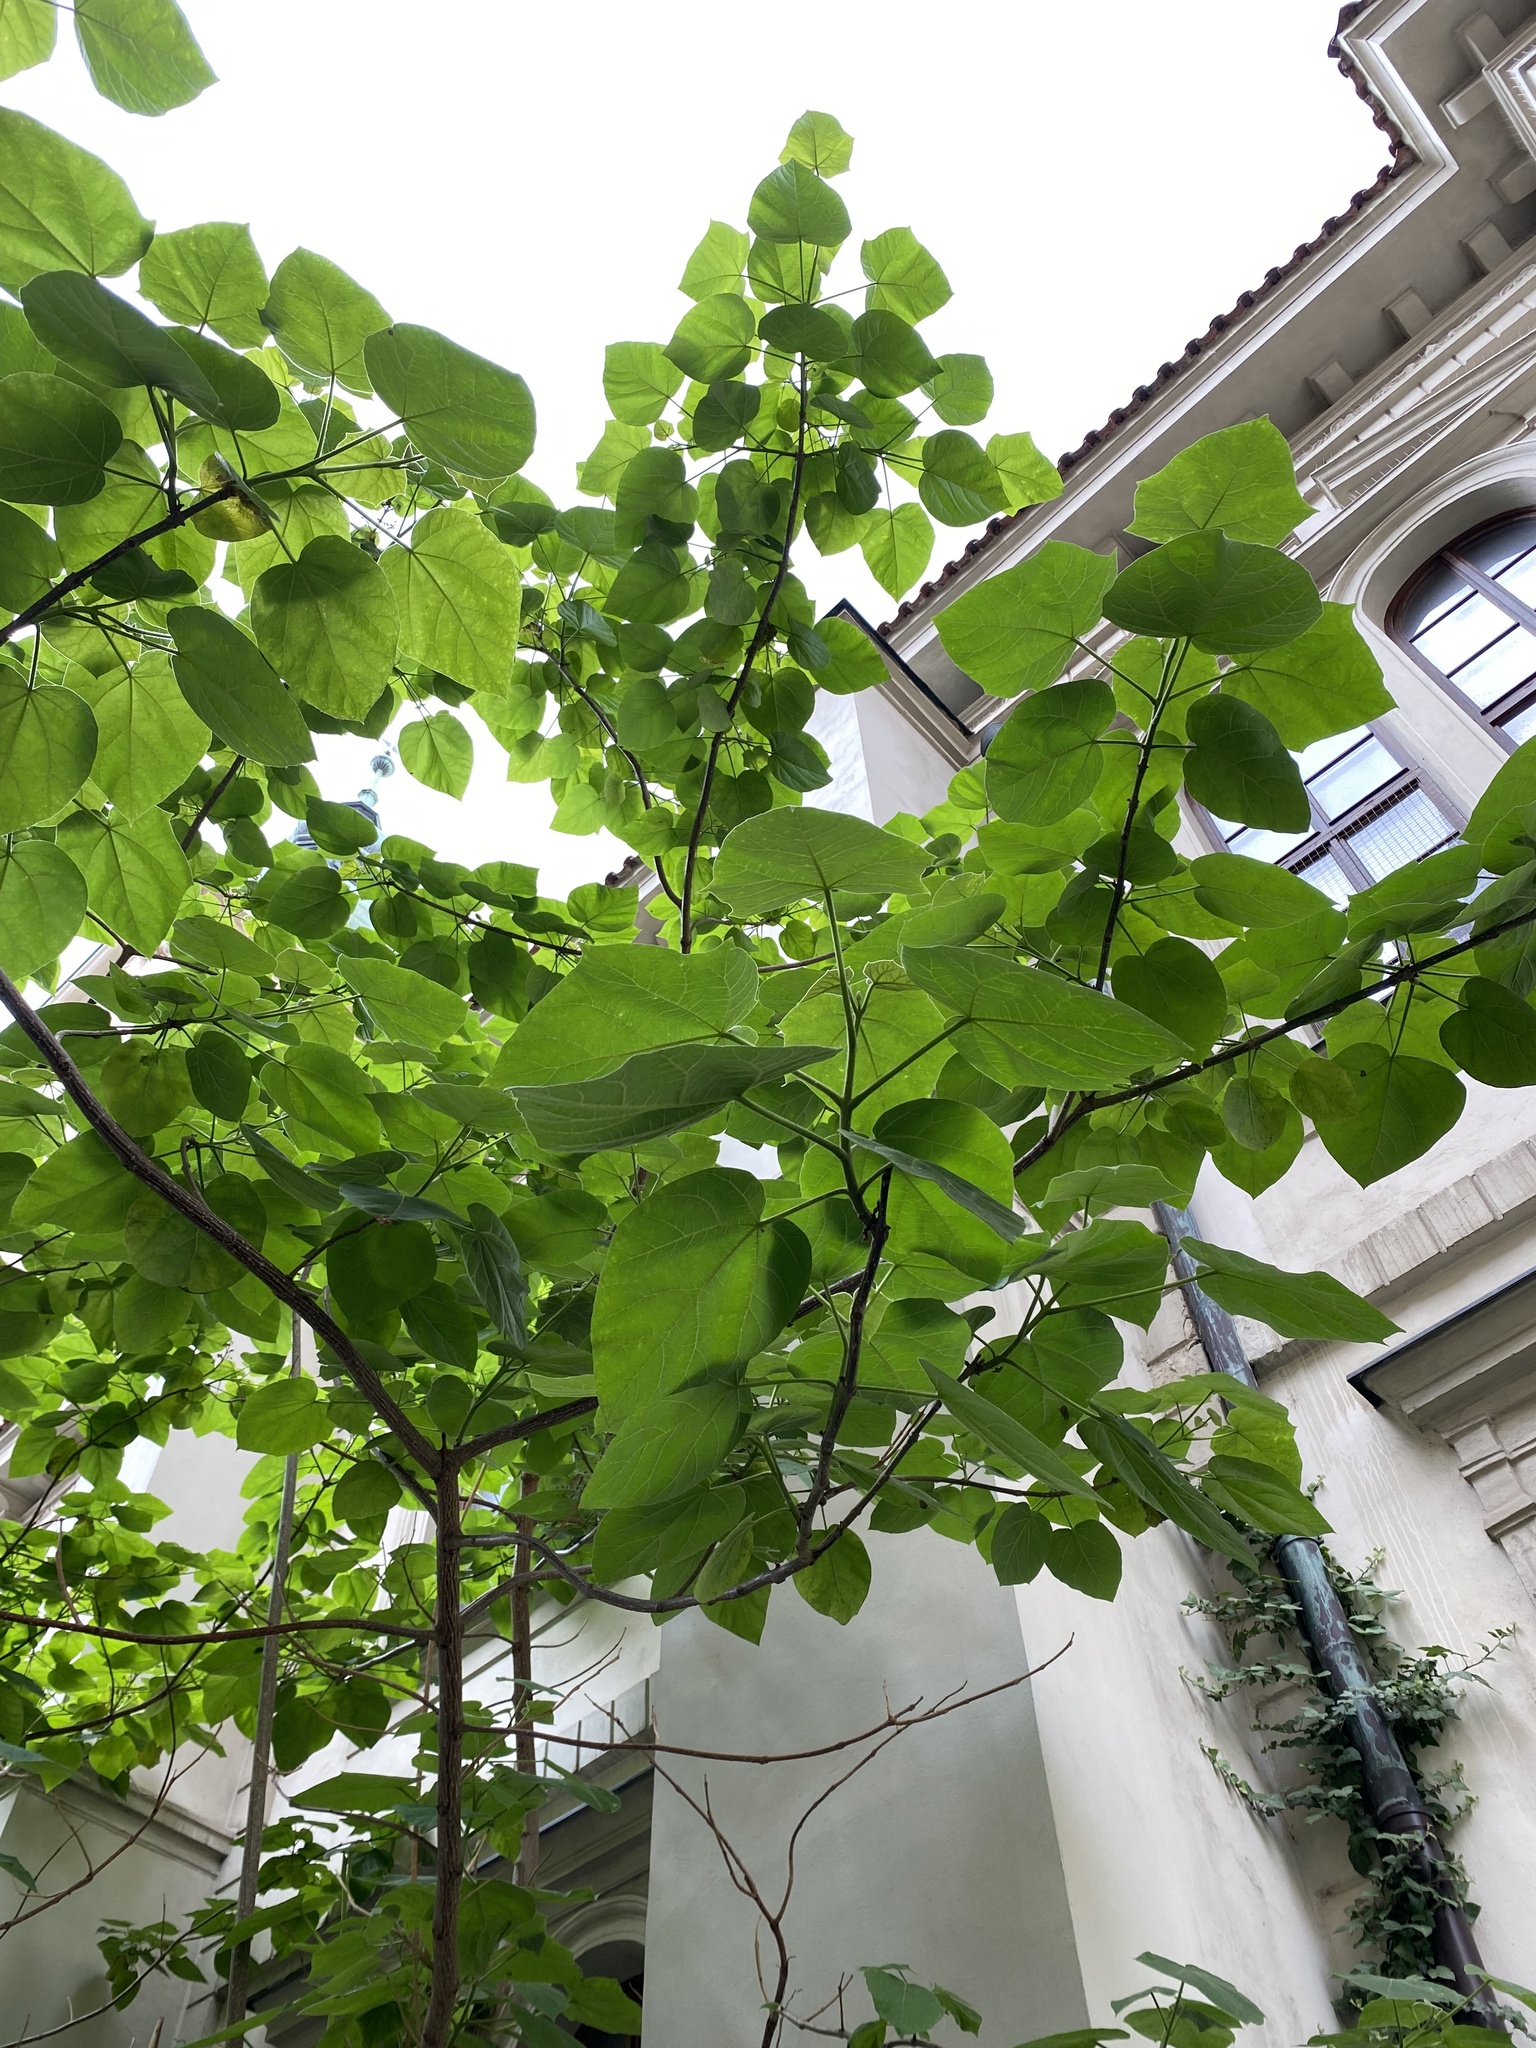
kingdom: Plantae
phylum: Tracheophyta
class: Magnoliopsida
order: Lamiales
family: Paulowniaceae
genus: Paulownia
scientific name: Paulownia tomentosa
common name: Foxglove-tree
